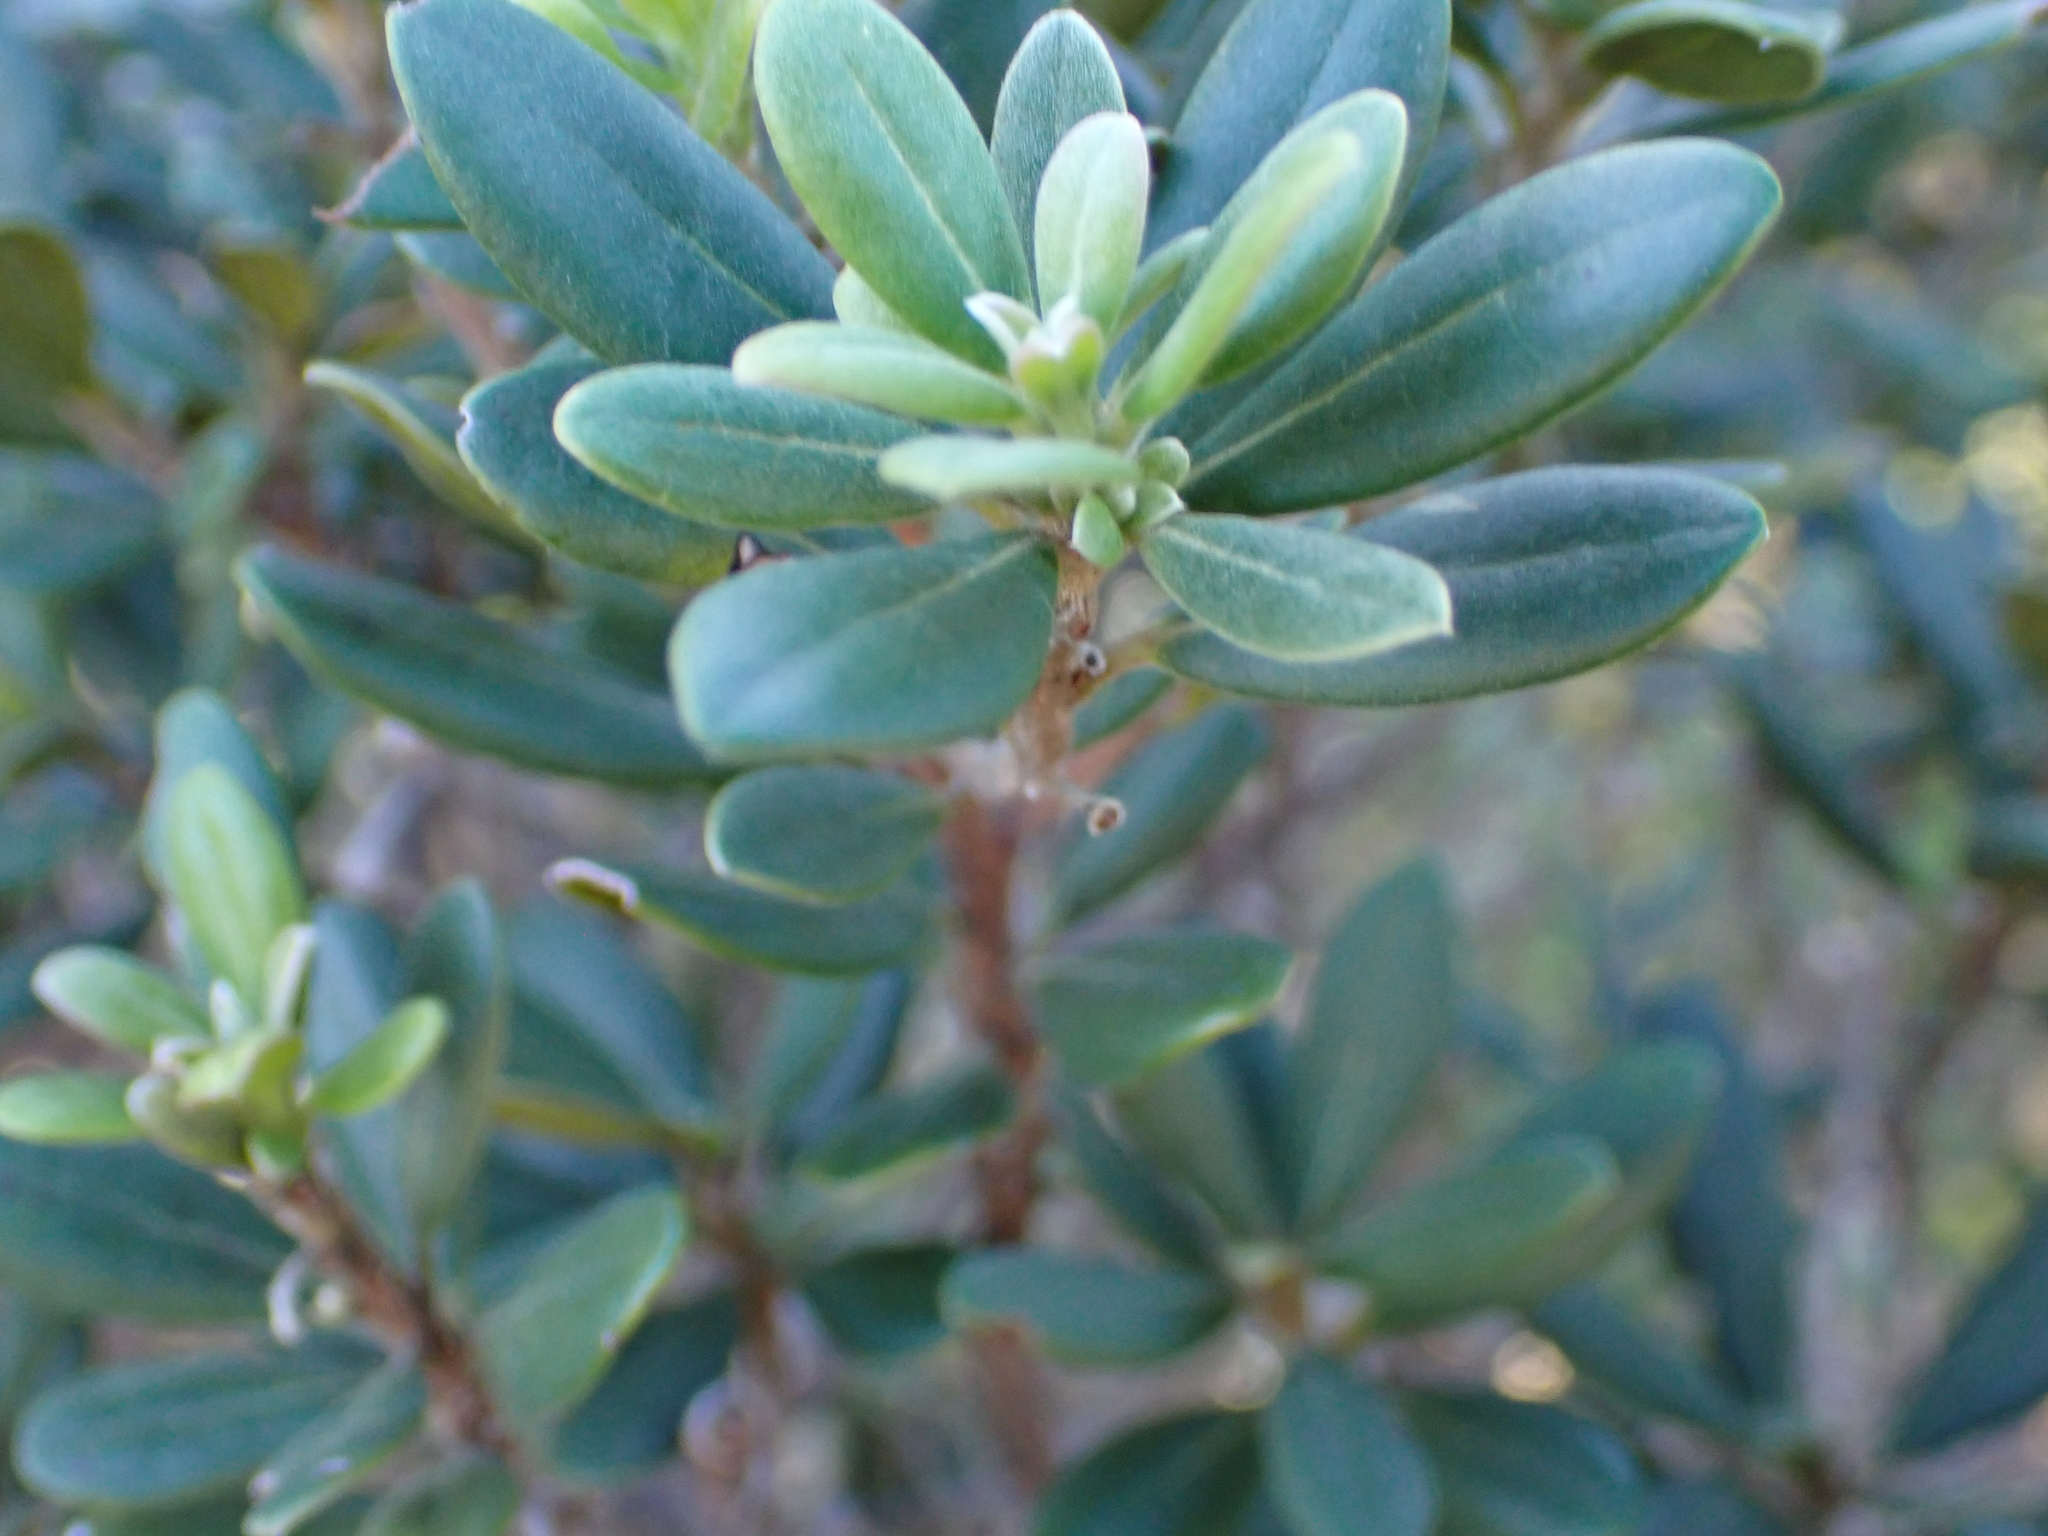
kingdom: Plantae
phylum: Tracheophyta
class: Magnoliopsida
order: Ericales
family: Ebenaceae
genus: Diospyros
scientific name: Diospyros dichrophylla
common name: Common star-apple
